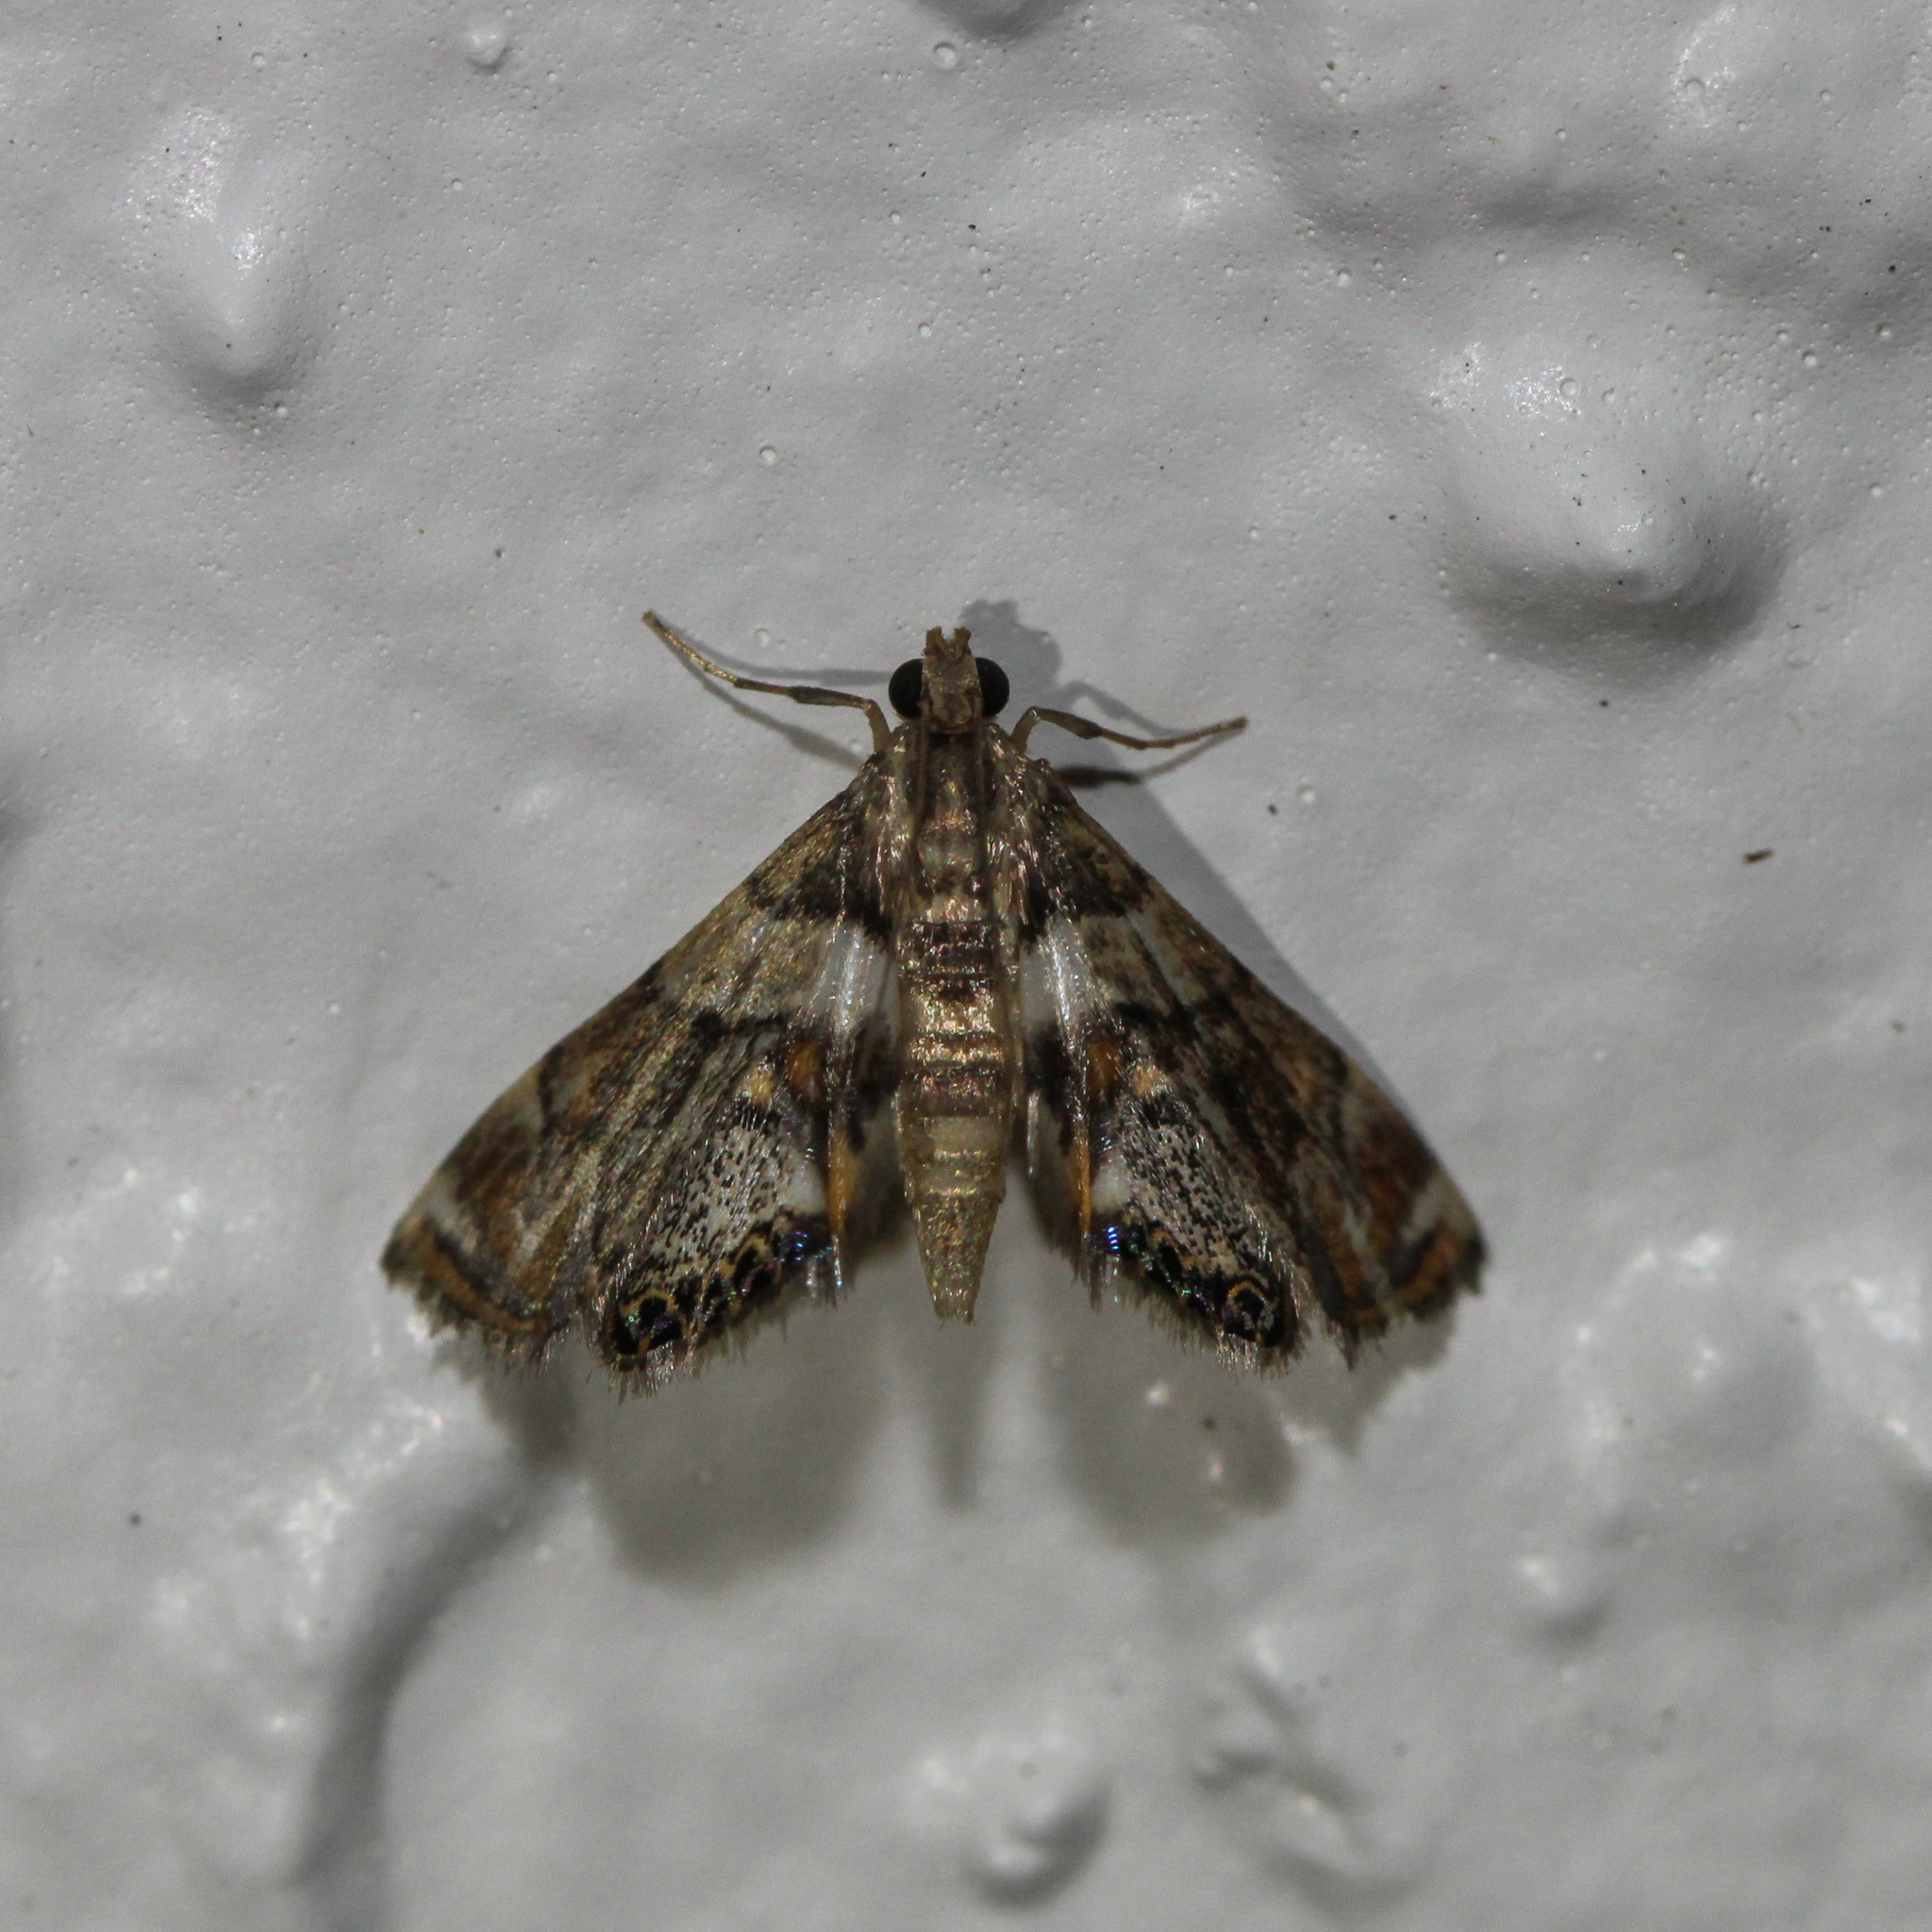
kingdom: Animalia
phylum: Arthropoda
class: Insecta
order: Lepidoptera
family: Crambidae
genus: Neargyractis
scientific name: Neargyractis slossonalis
